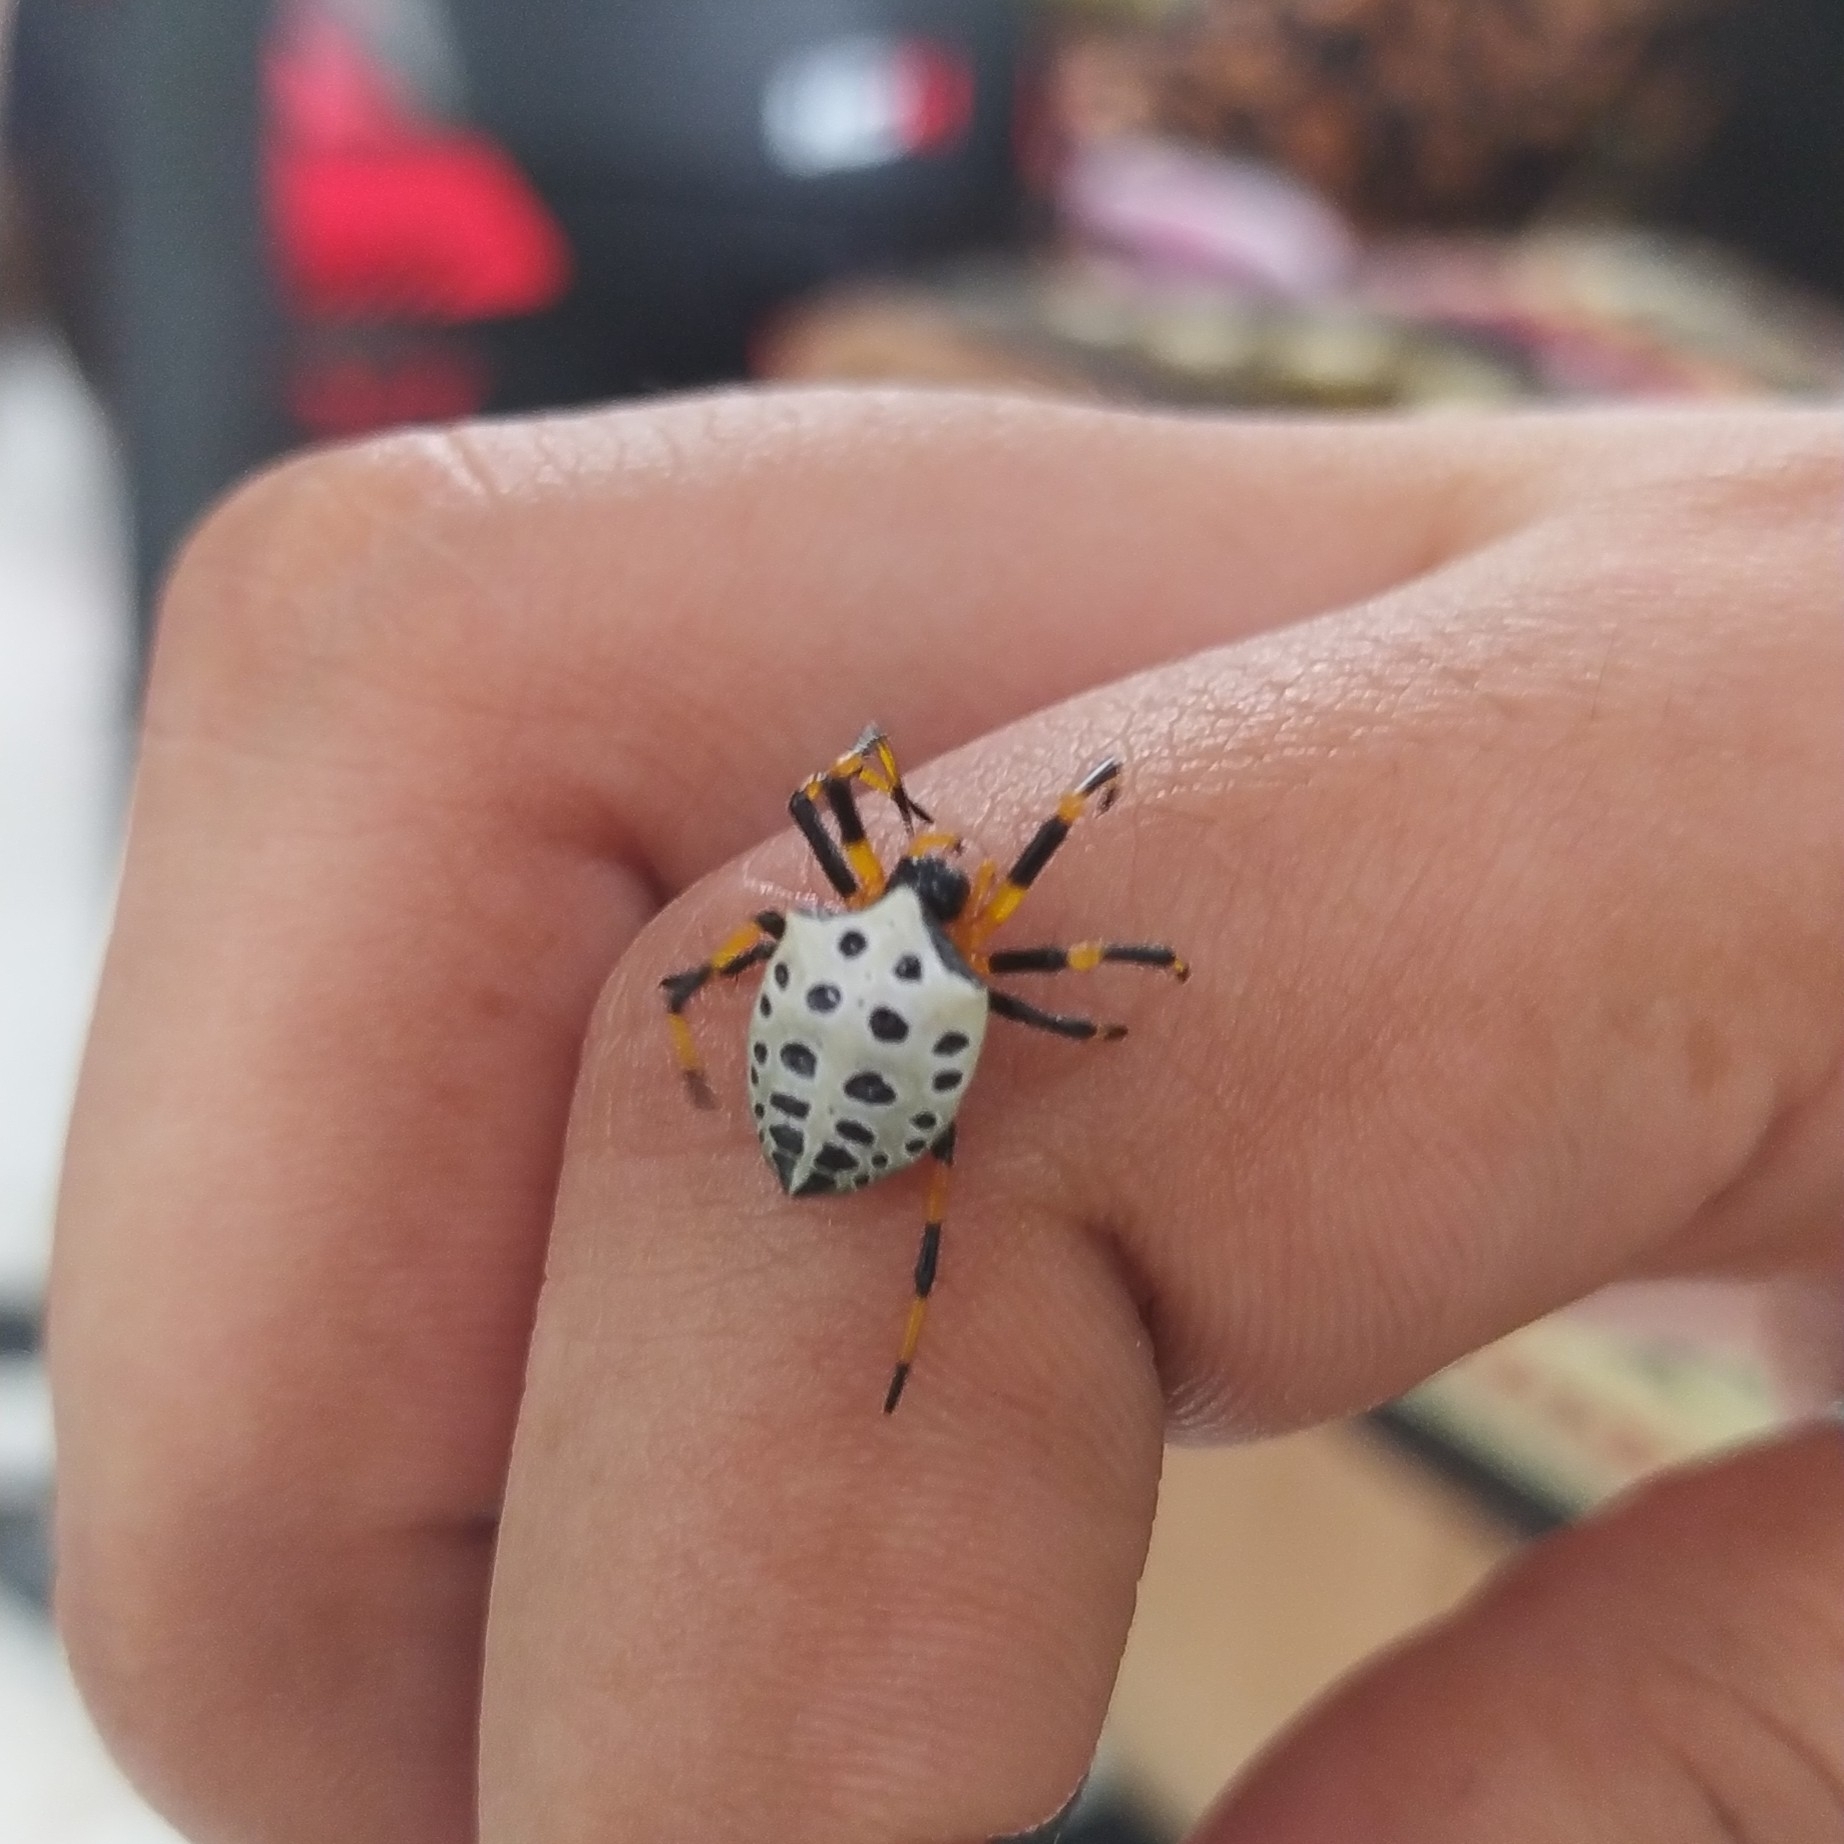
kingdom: Animalia
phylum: Arthropoda
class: Arachnida
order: Araneae
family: Araneidae
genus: Alpaida
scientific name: Alpaida tabula
